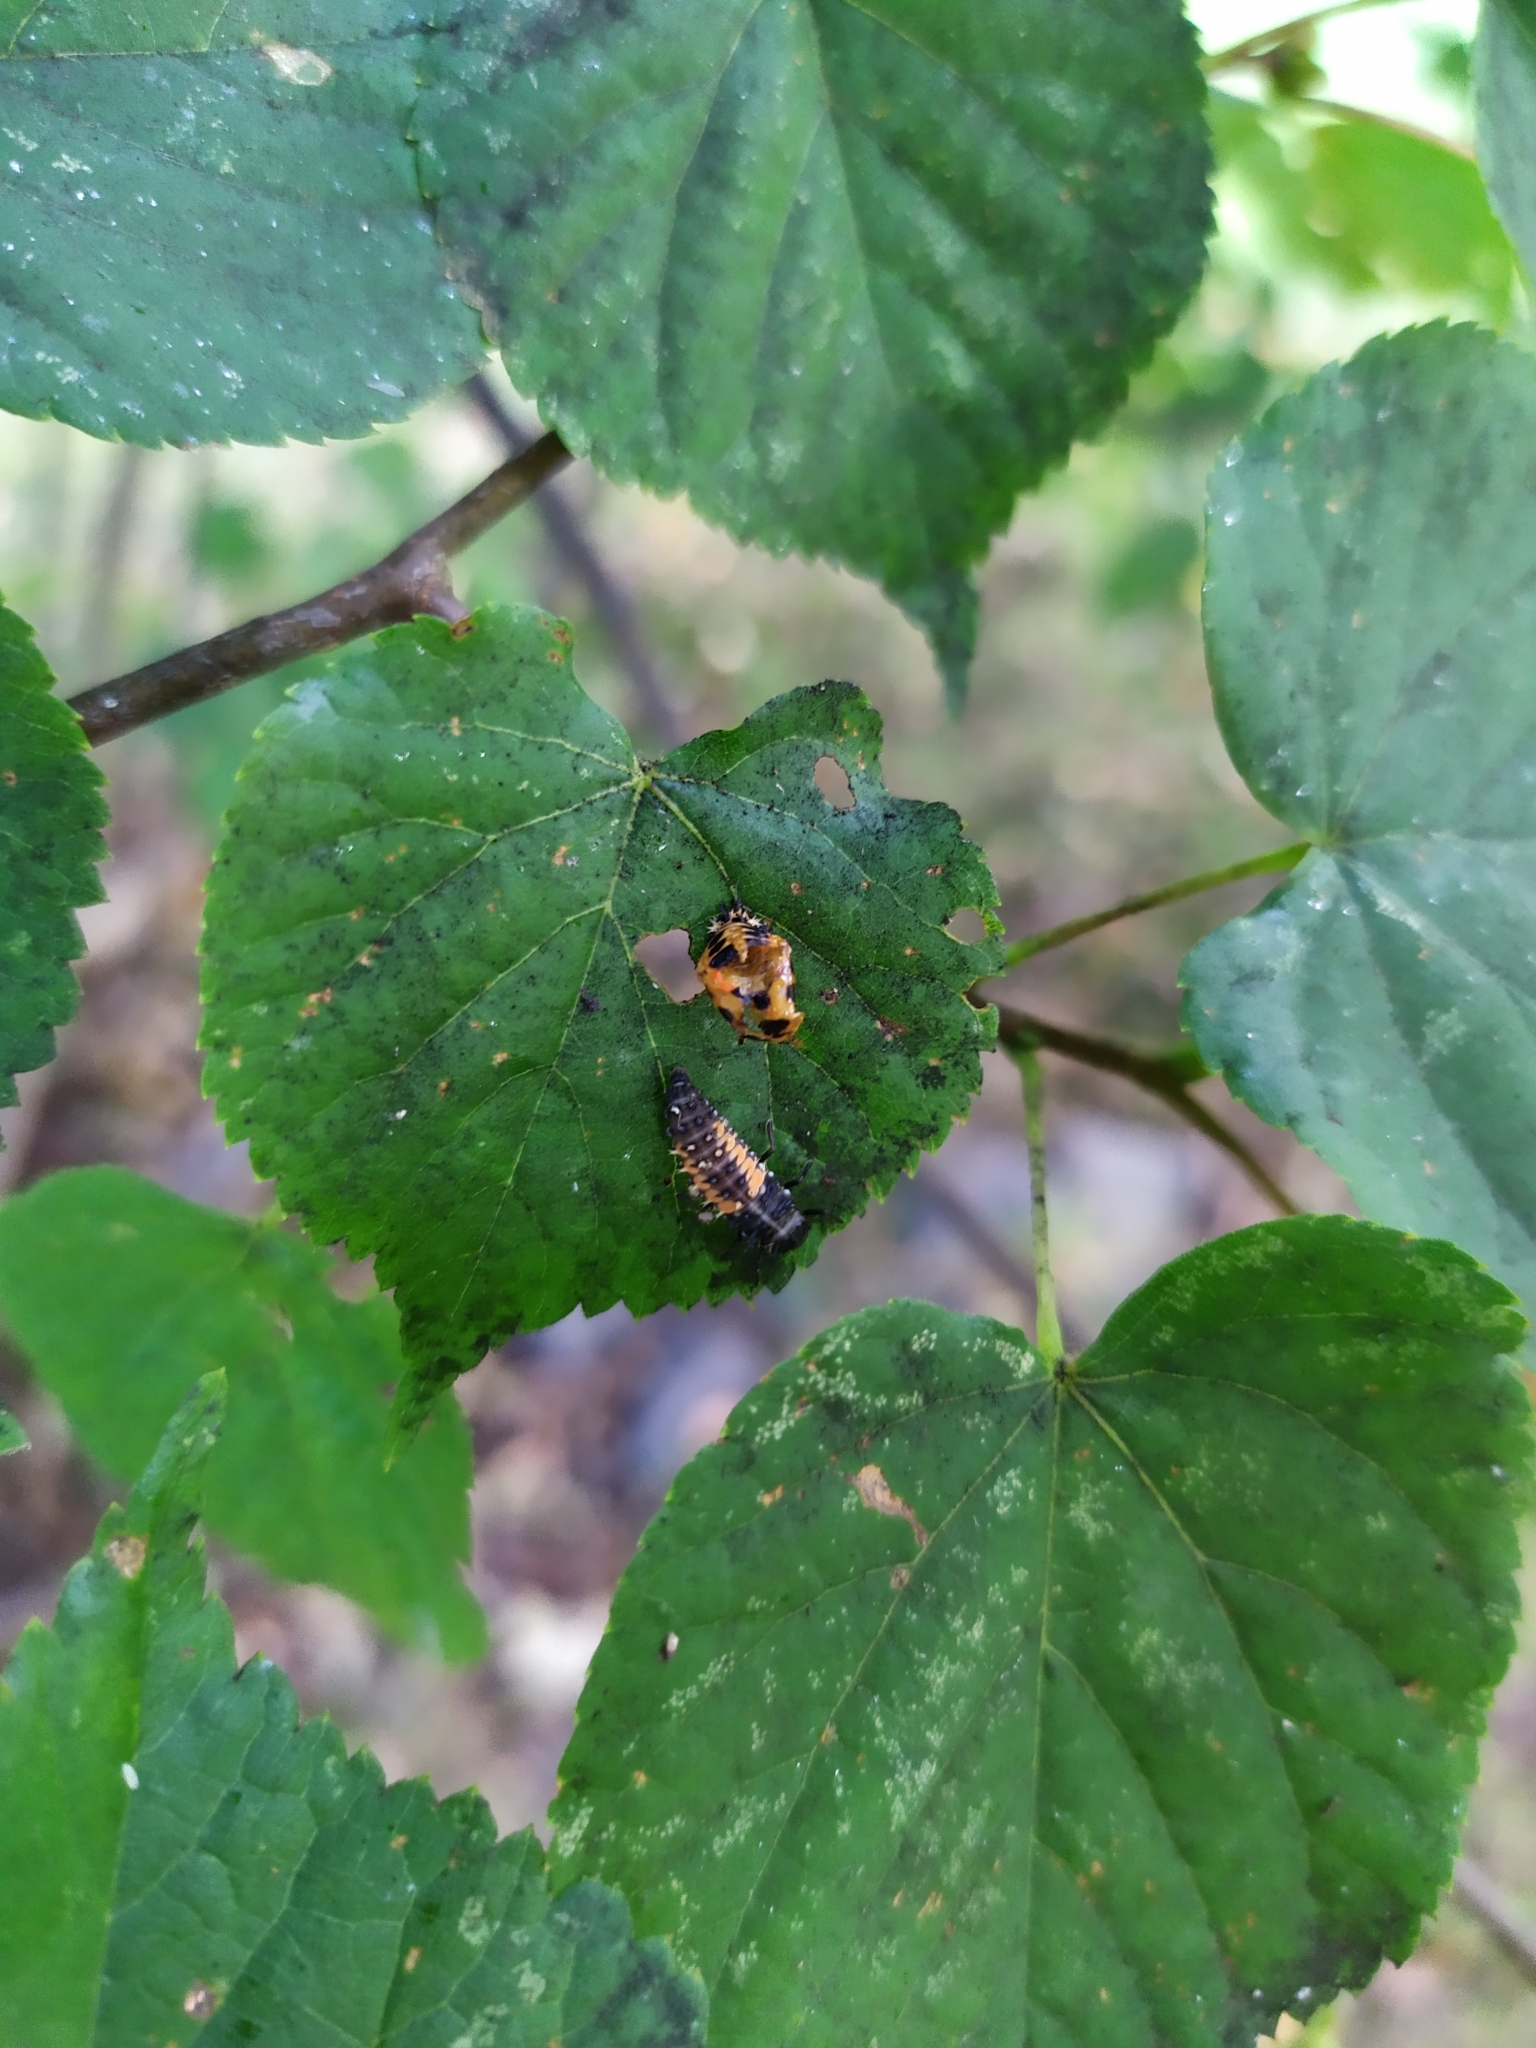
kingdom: Animalia
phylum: Arthropoda
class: Insecta
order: Coleoptera
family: Coccinellidae
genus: Harmonia
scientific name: Harmonia axyridis
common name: Harlequin ladybird
